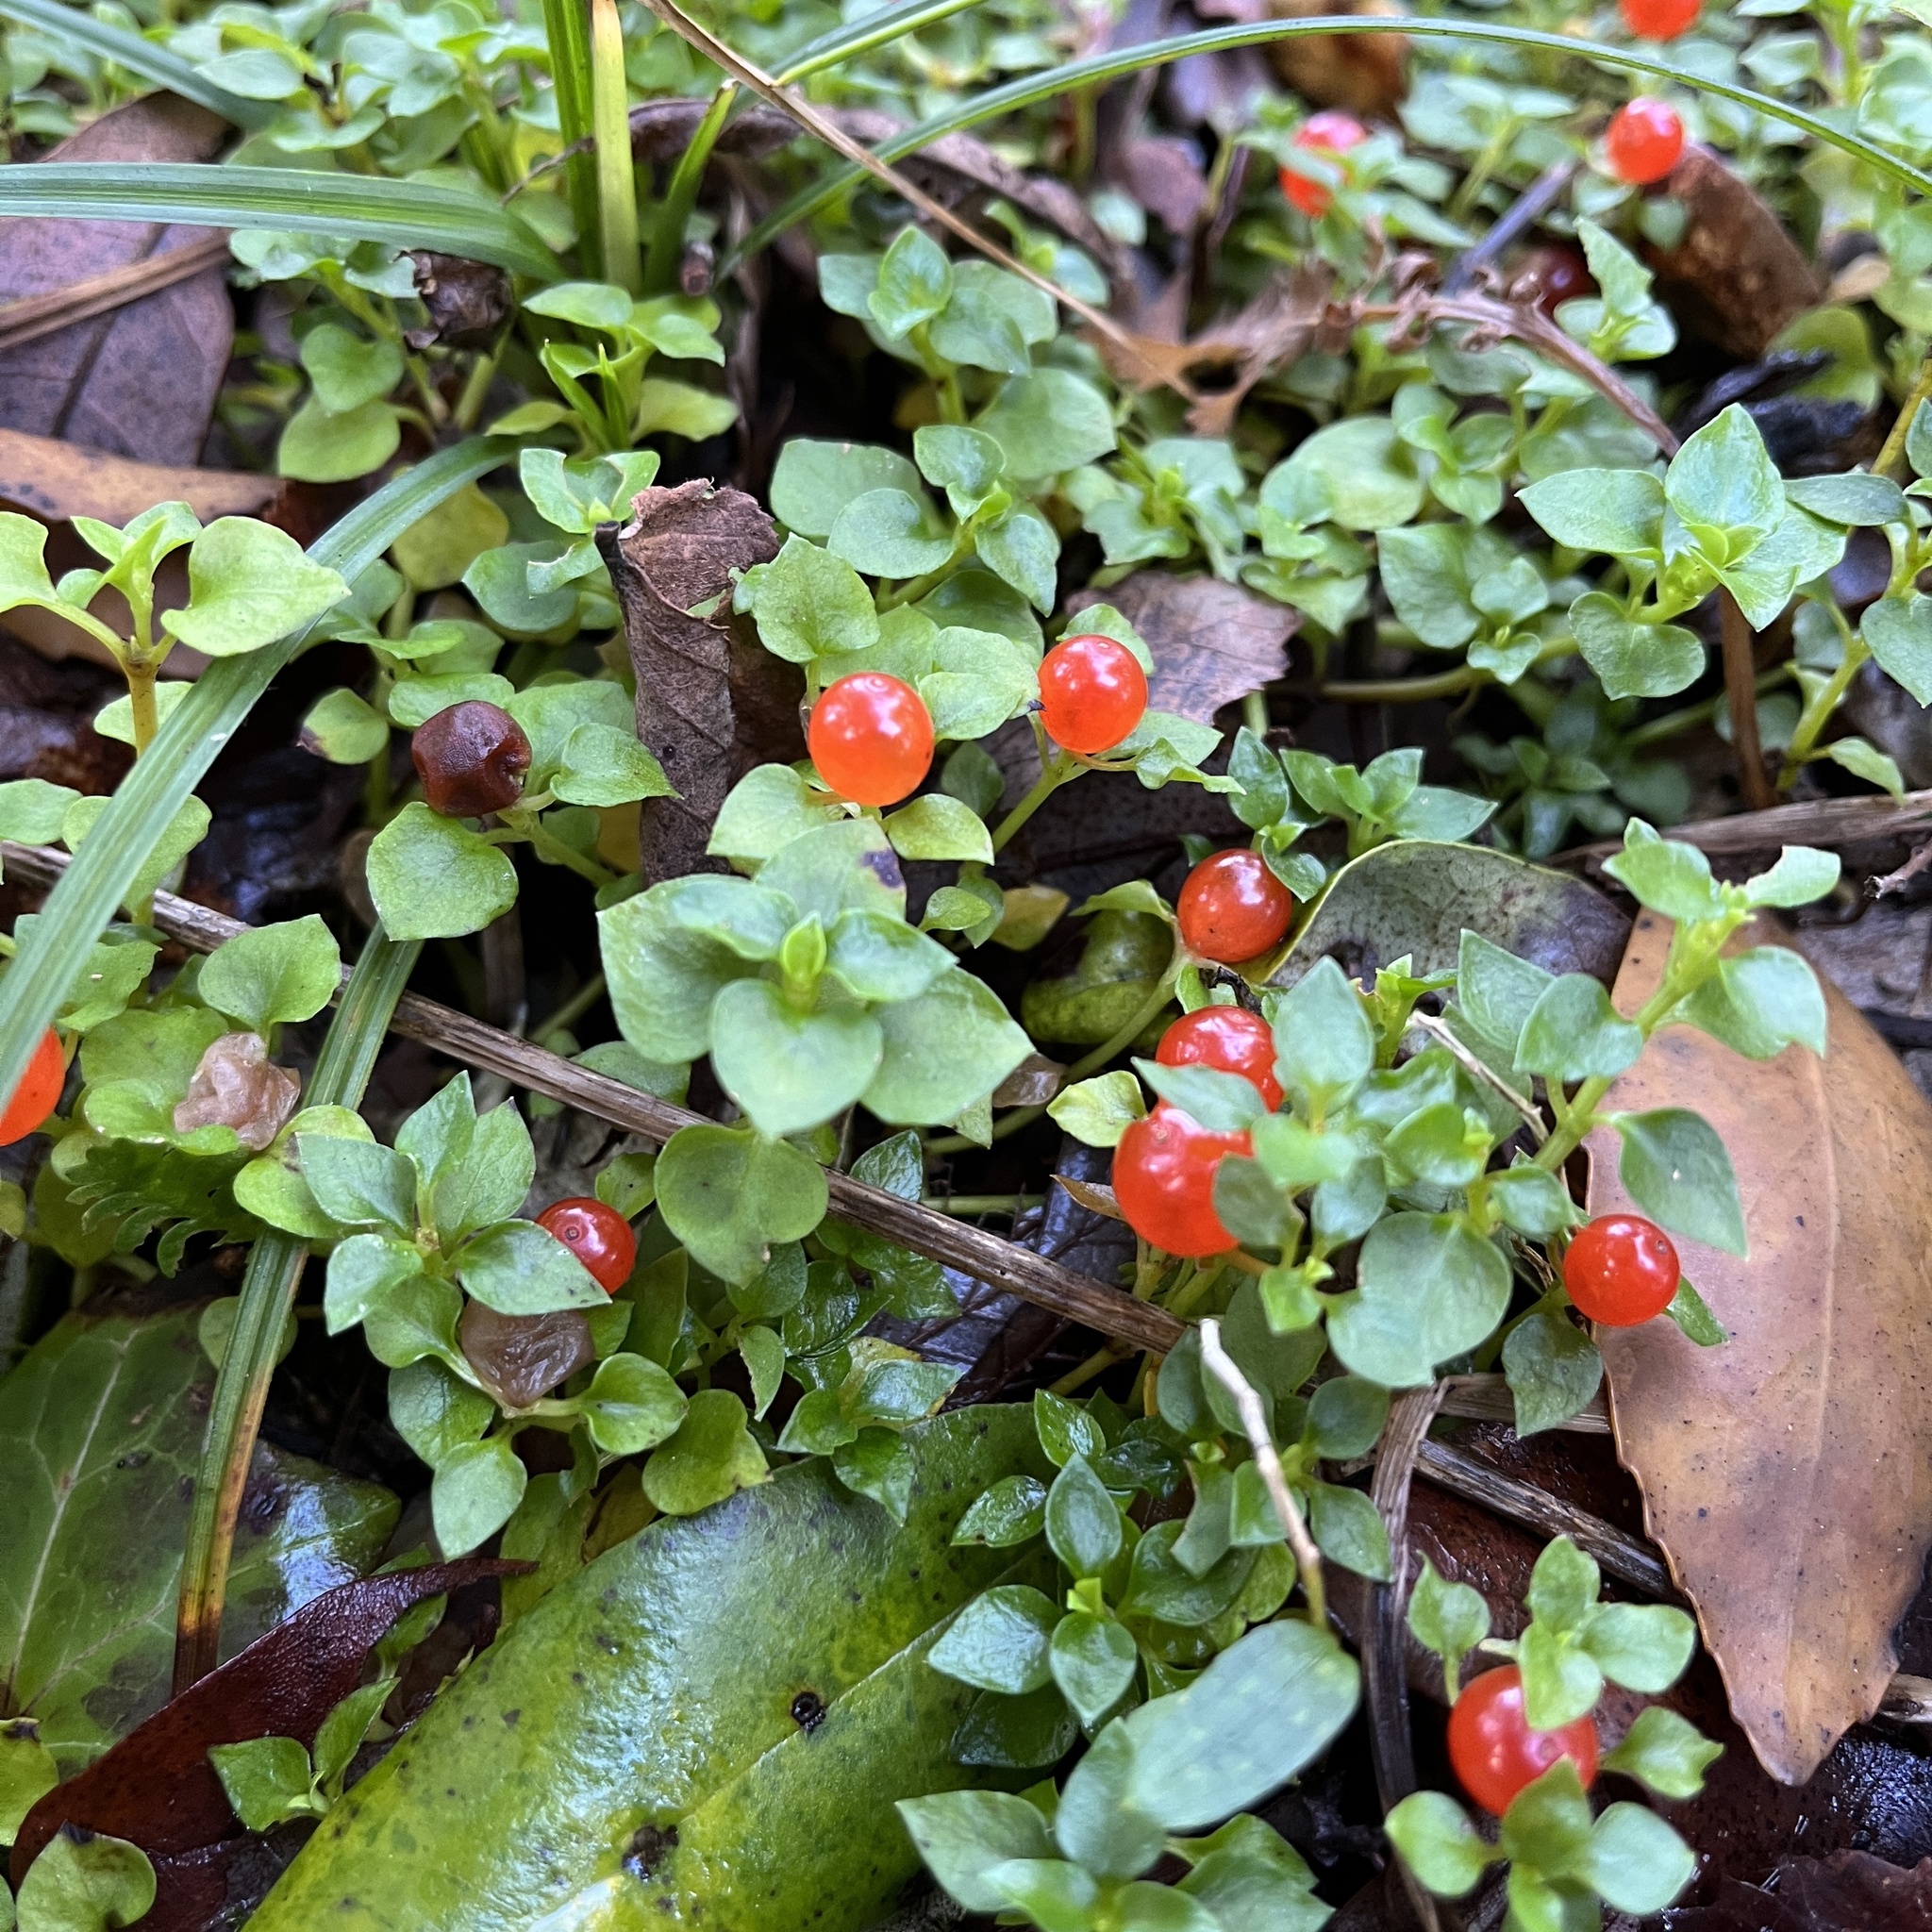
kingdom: Plantae
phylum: Tracheophyta
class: Magnoliopsida
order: Gentianales
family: Rubiaceae
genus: Nertera
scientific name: Nertera granadensis
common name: Beadplant
